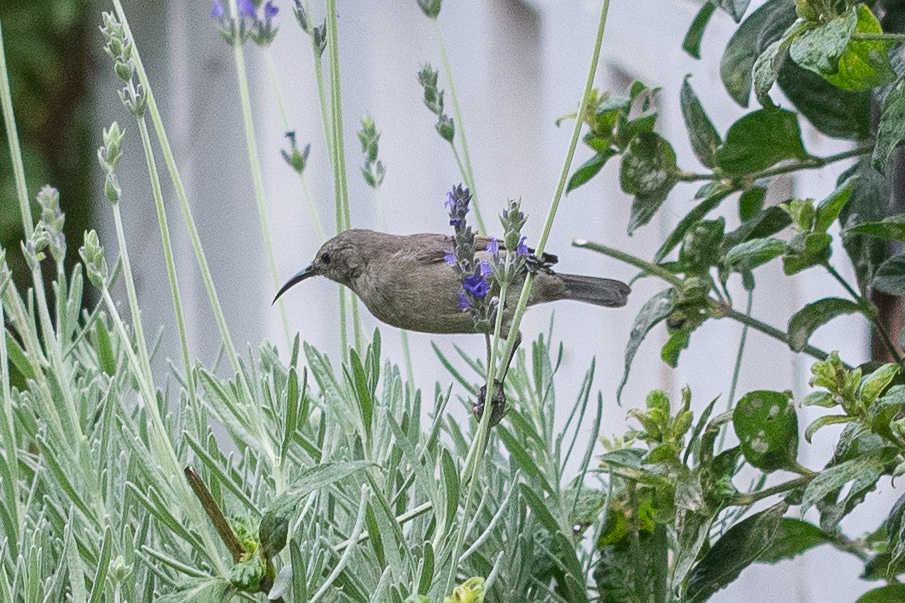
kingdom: Animalia
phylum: Chordata
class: Aves
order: Passeriformes
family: Nectariniidae
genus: Cinnyris
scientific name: Cinnyris chalybeus
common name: Southern double-collared sunbird
